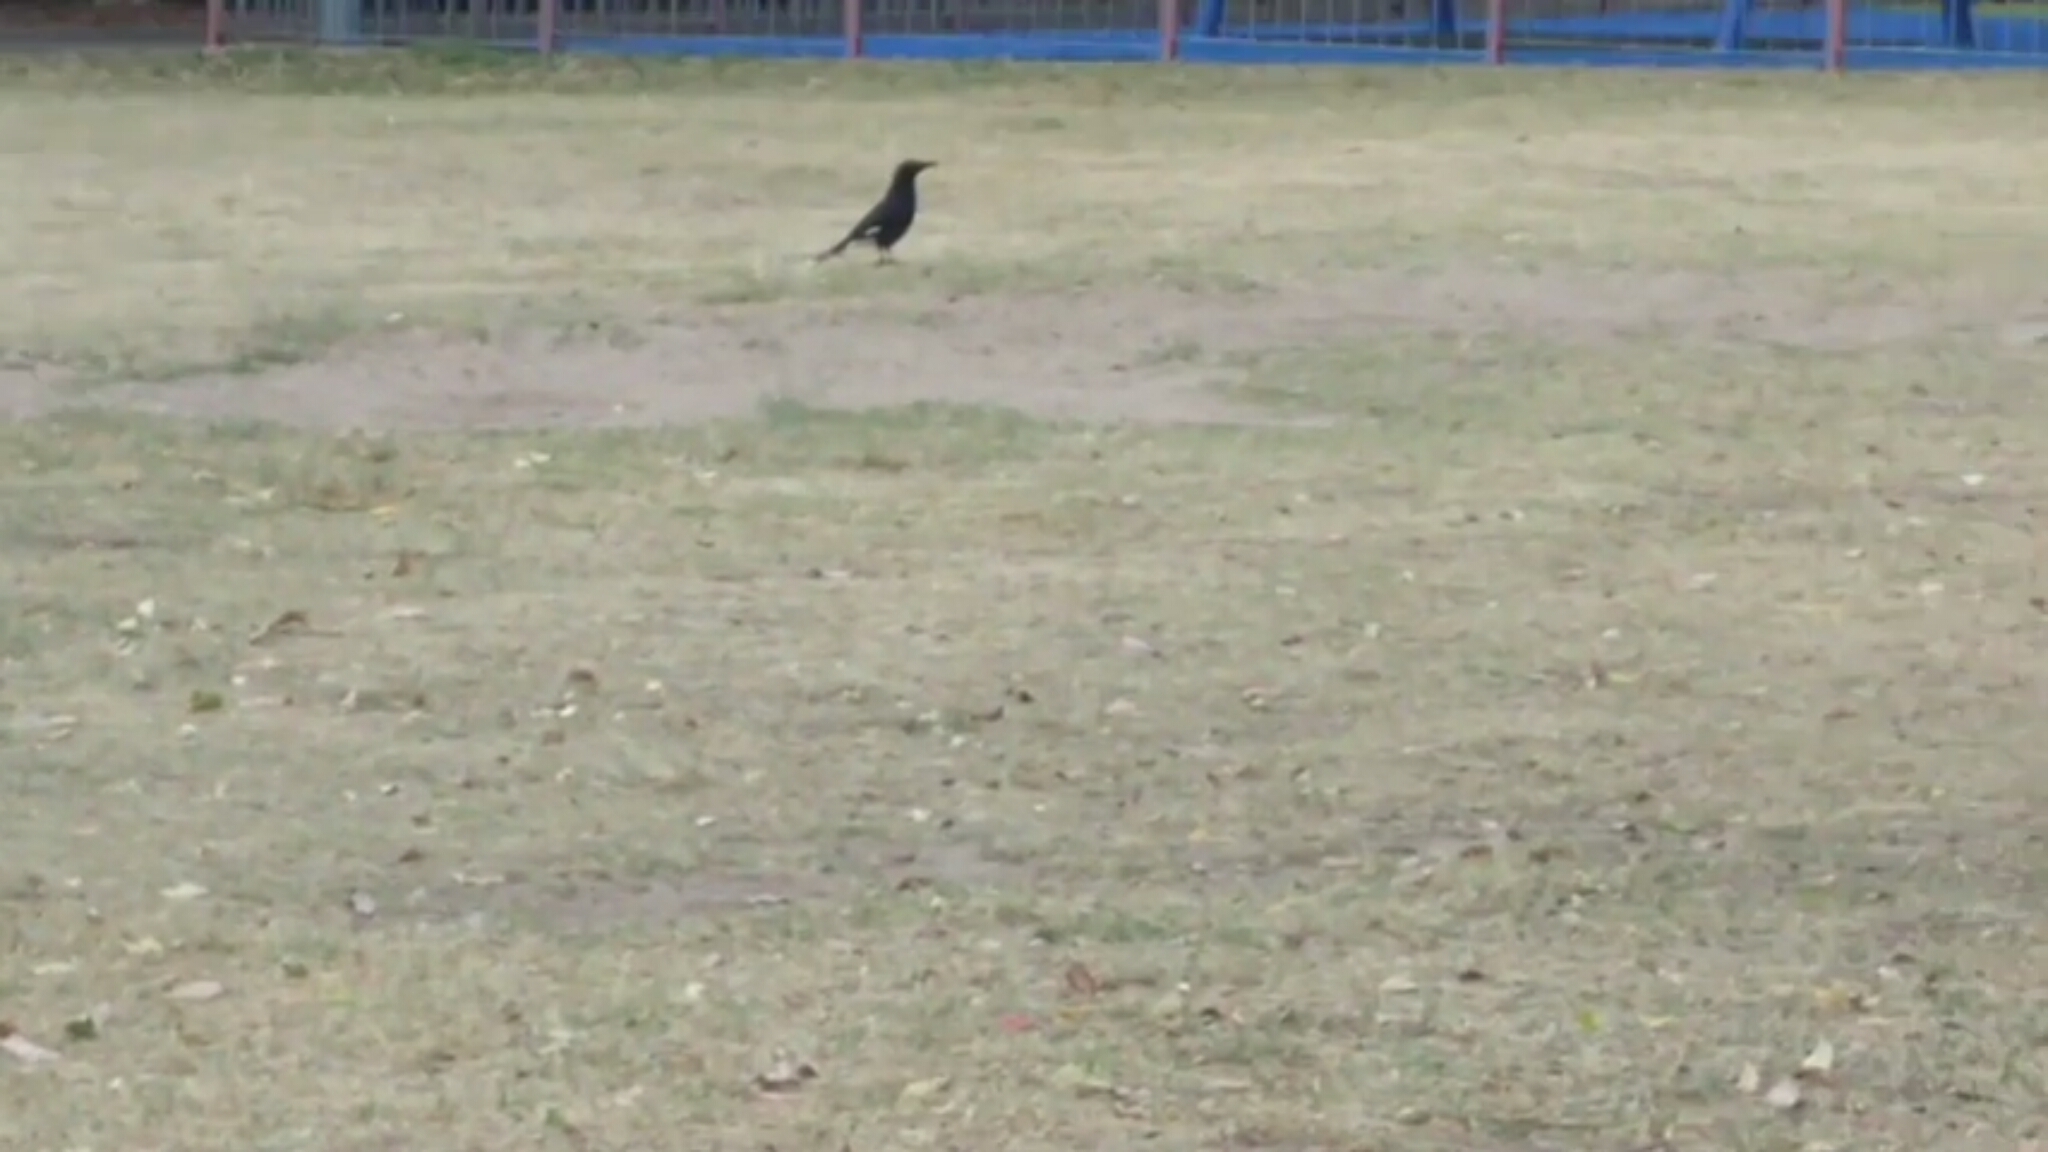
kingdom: Animalia
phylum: Chordata
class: Aves
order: Passeriformes
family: Cracticidae
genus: Strepera
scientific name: Strepera graculina
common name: Pied currawong
